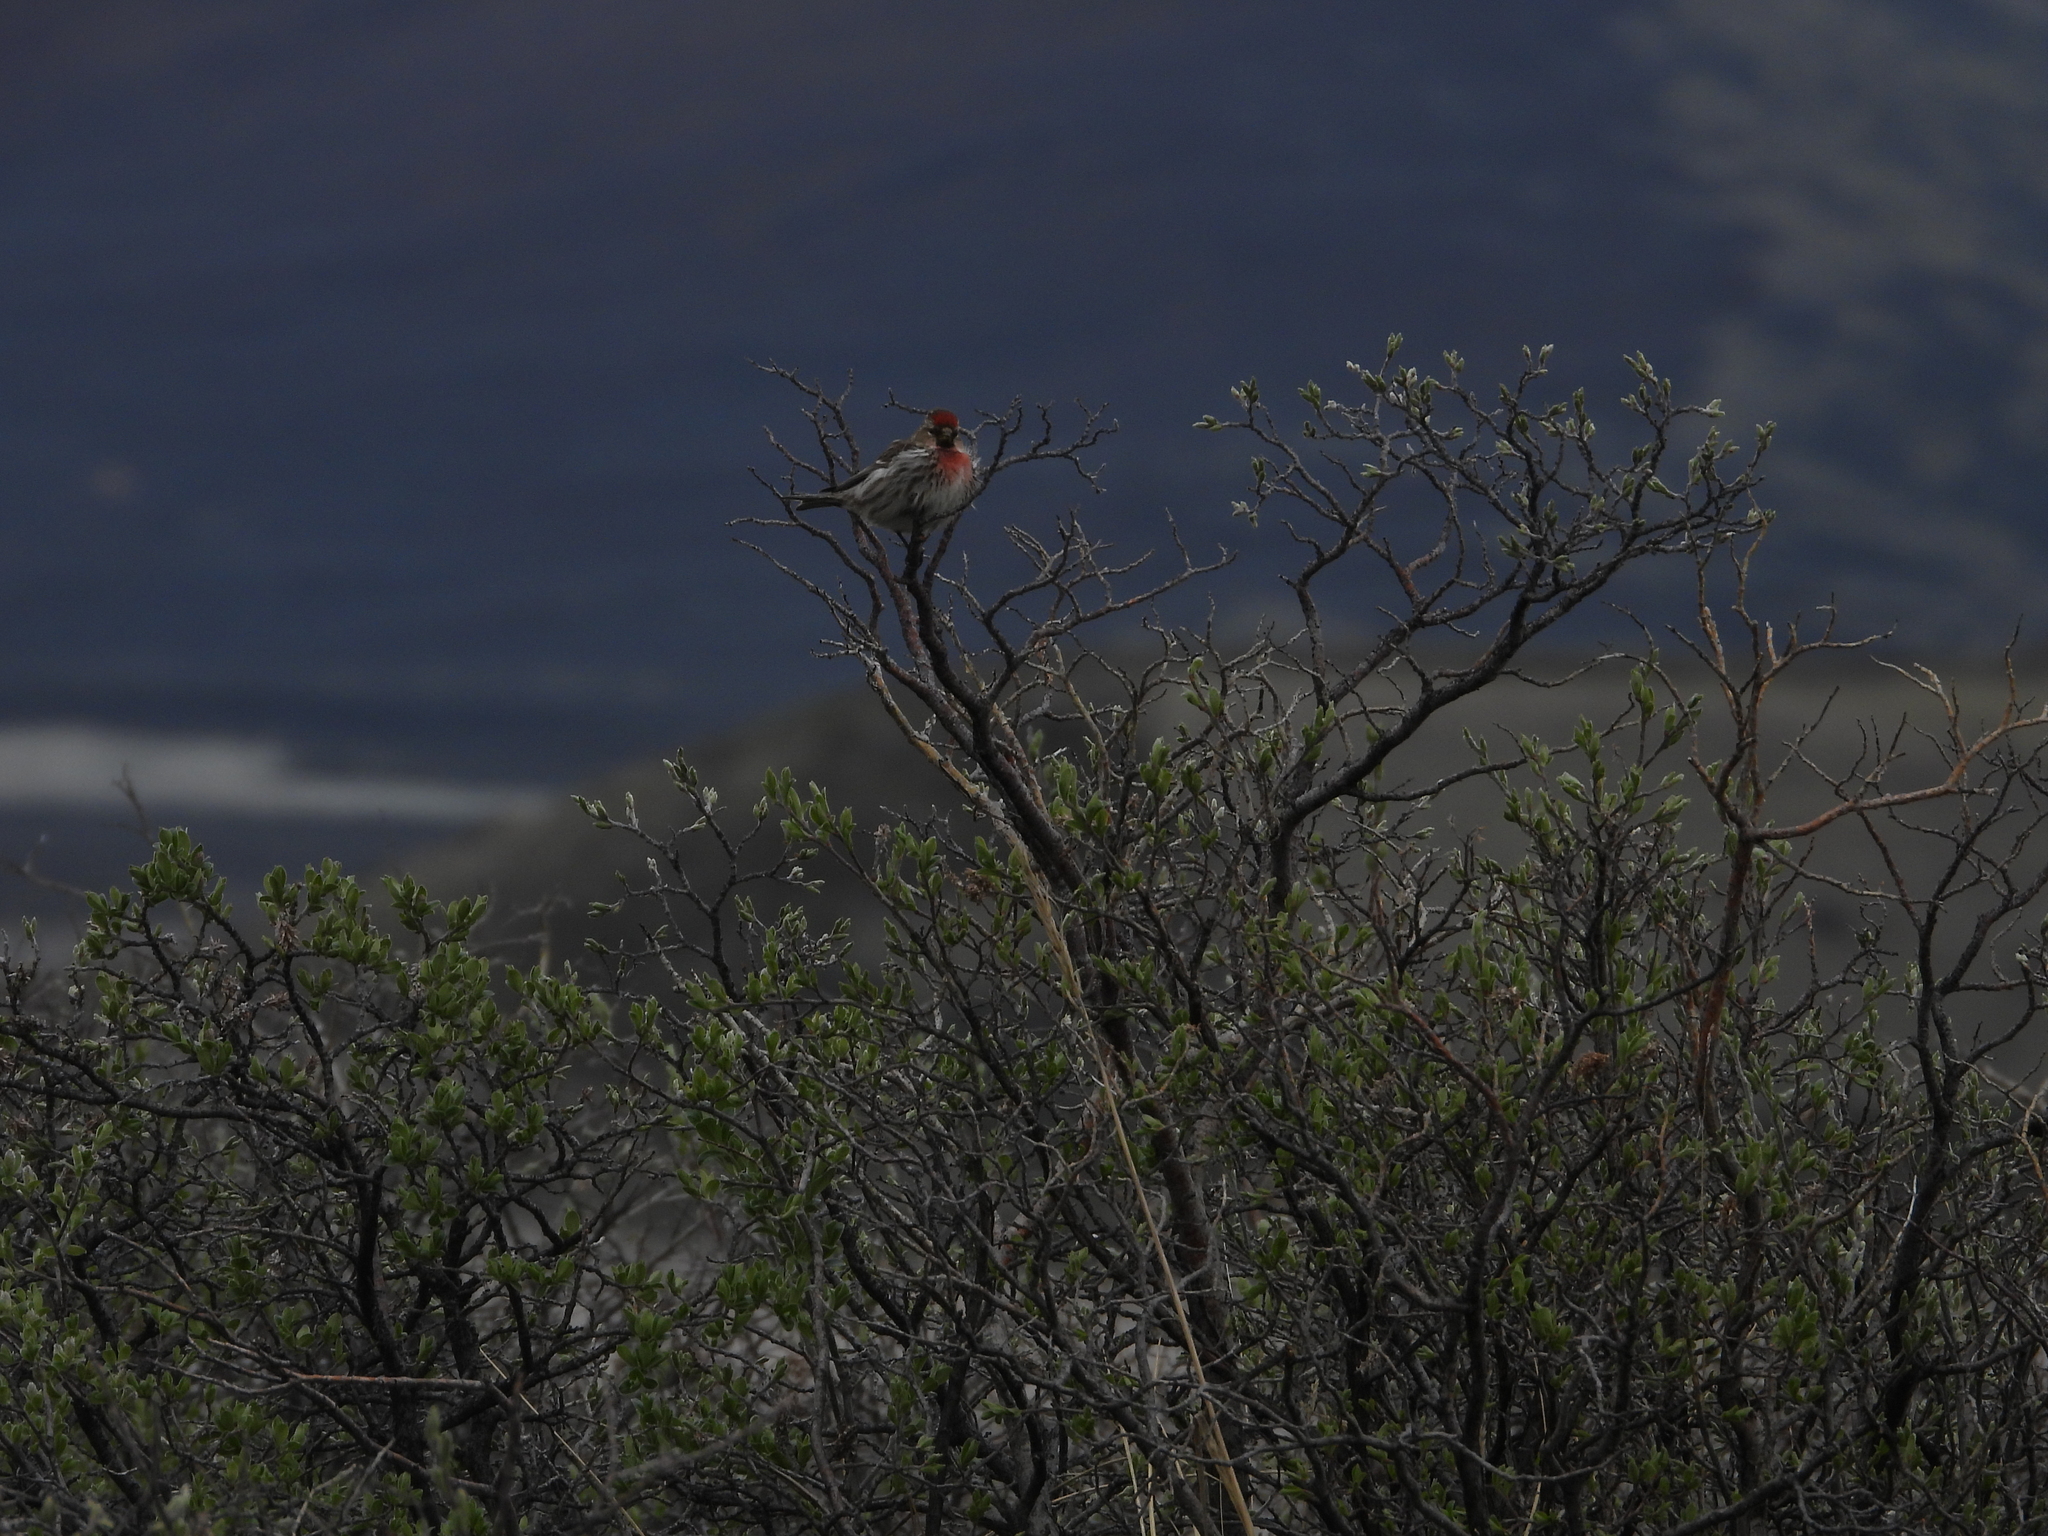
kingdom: Animalia
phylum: Chordata
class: Aves
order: Passeriformes
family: Fringillidae
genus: Acanthis
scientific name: Acanthis flammea
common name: Common redpoll
